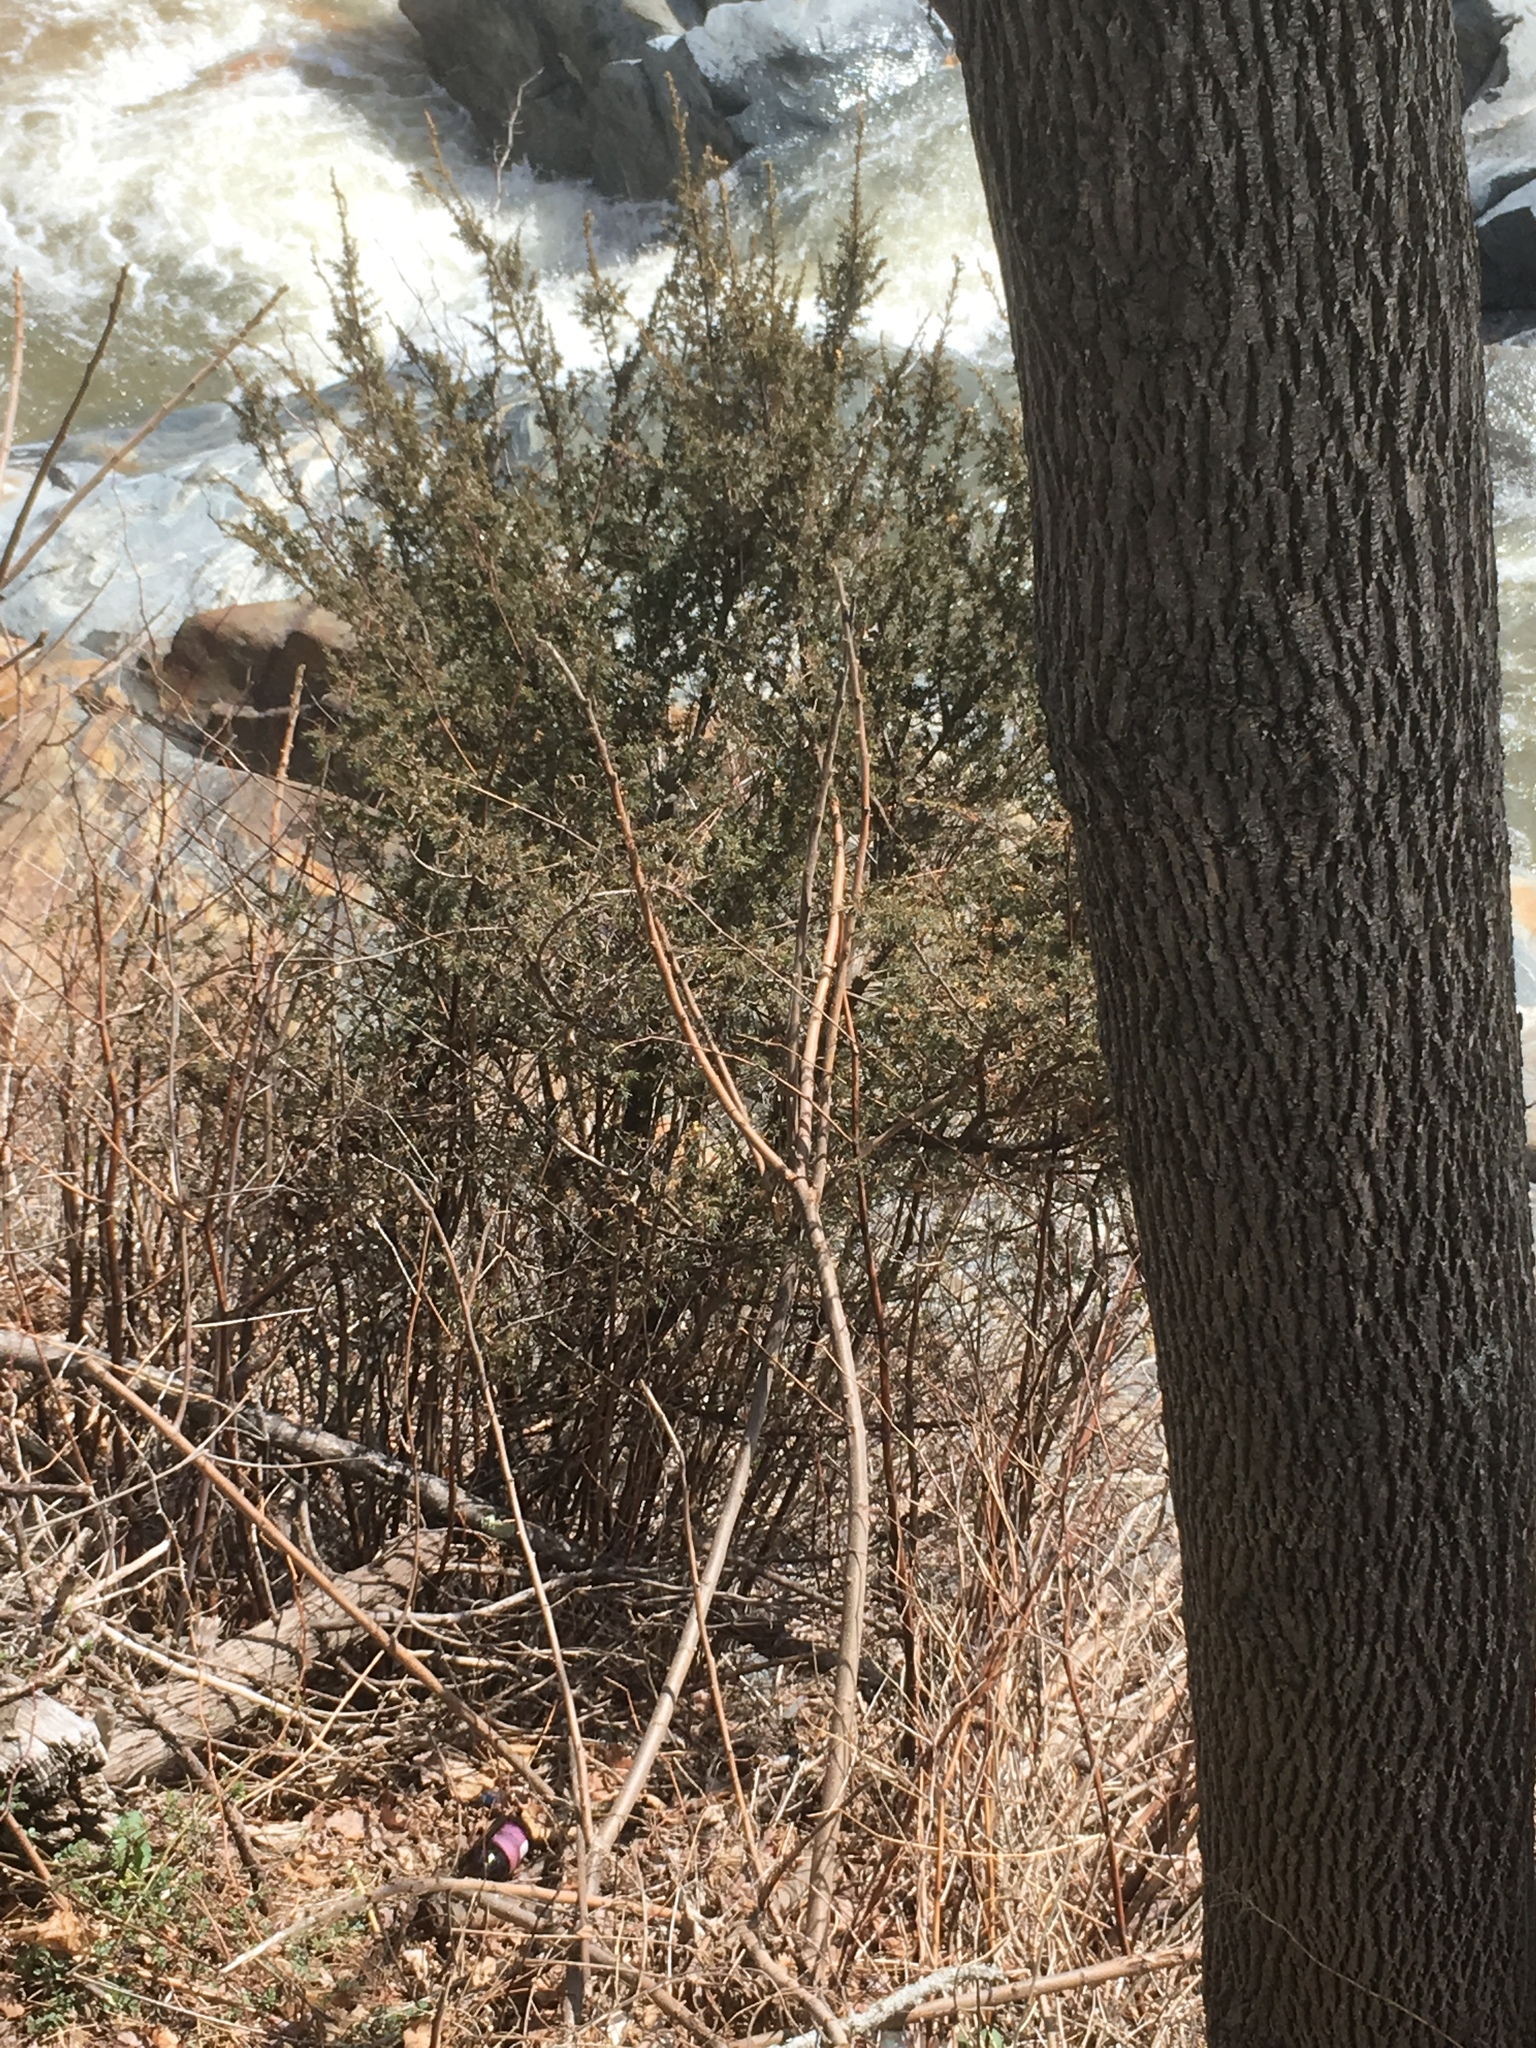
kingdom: Plantae
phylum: Tracheophyta
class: Pinopsida
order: Pinales
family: Cupressaceae
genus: Juniperus
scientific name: Juniperus virginiana
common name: Red juniper
